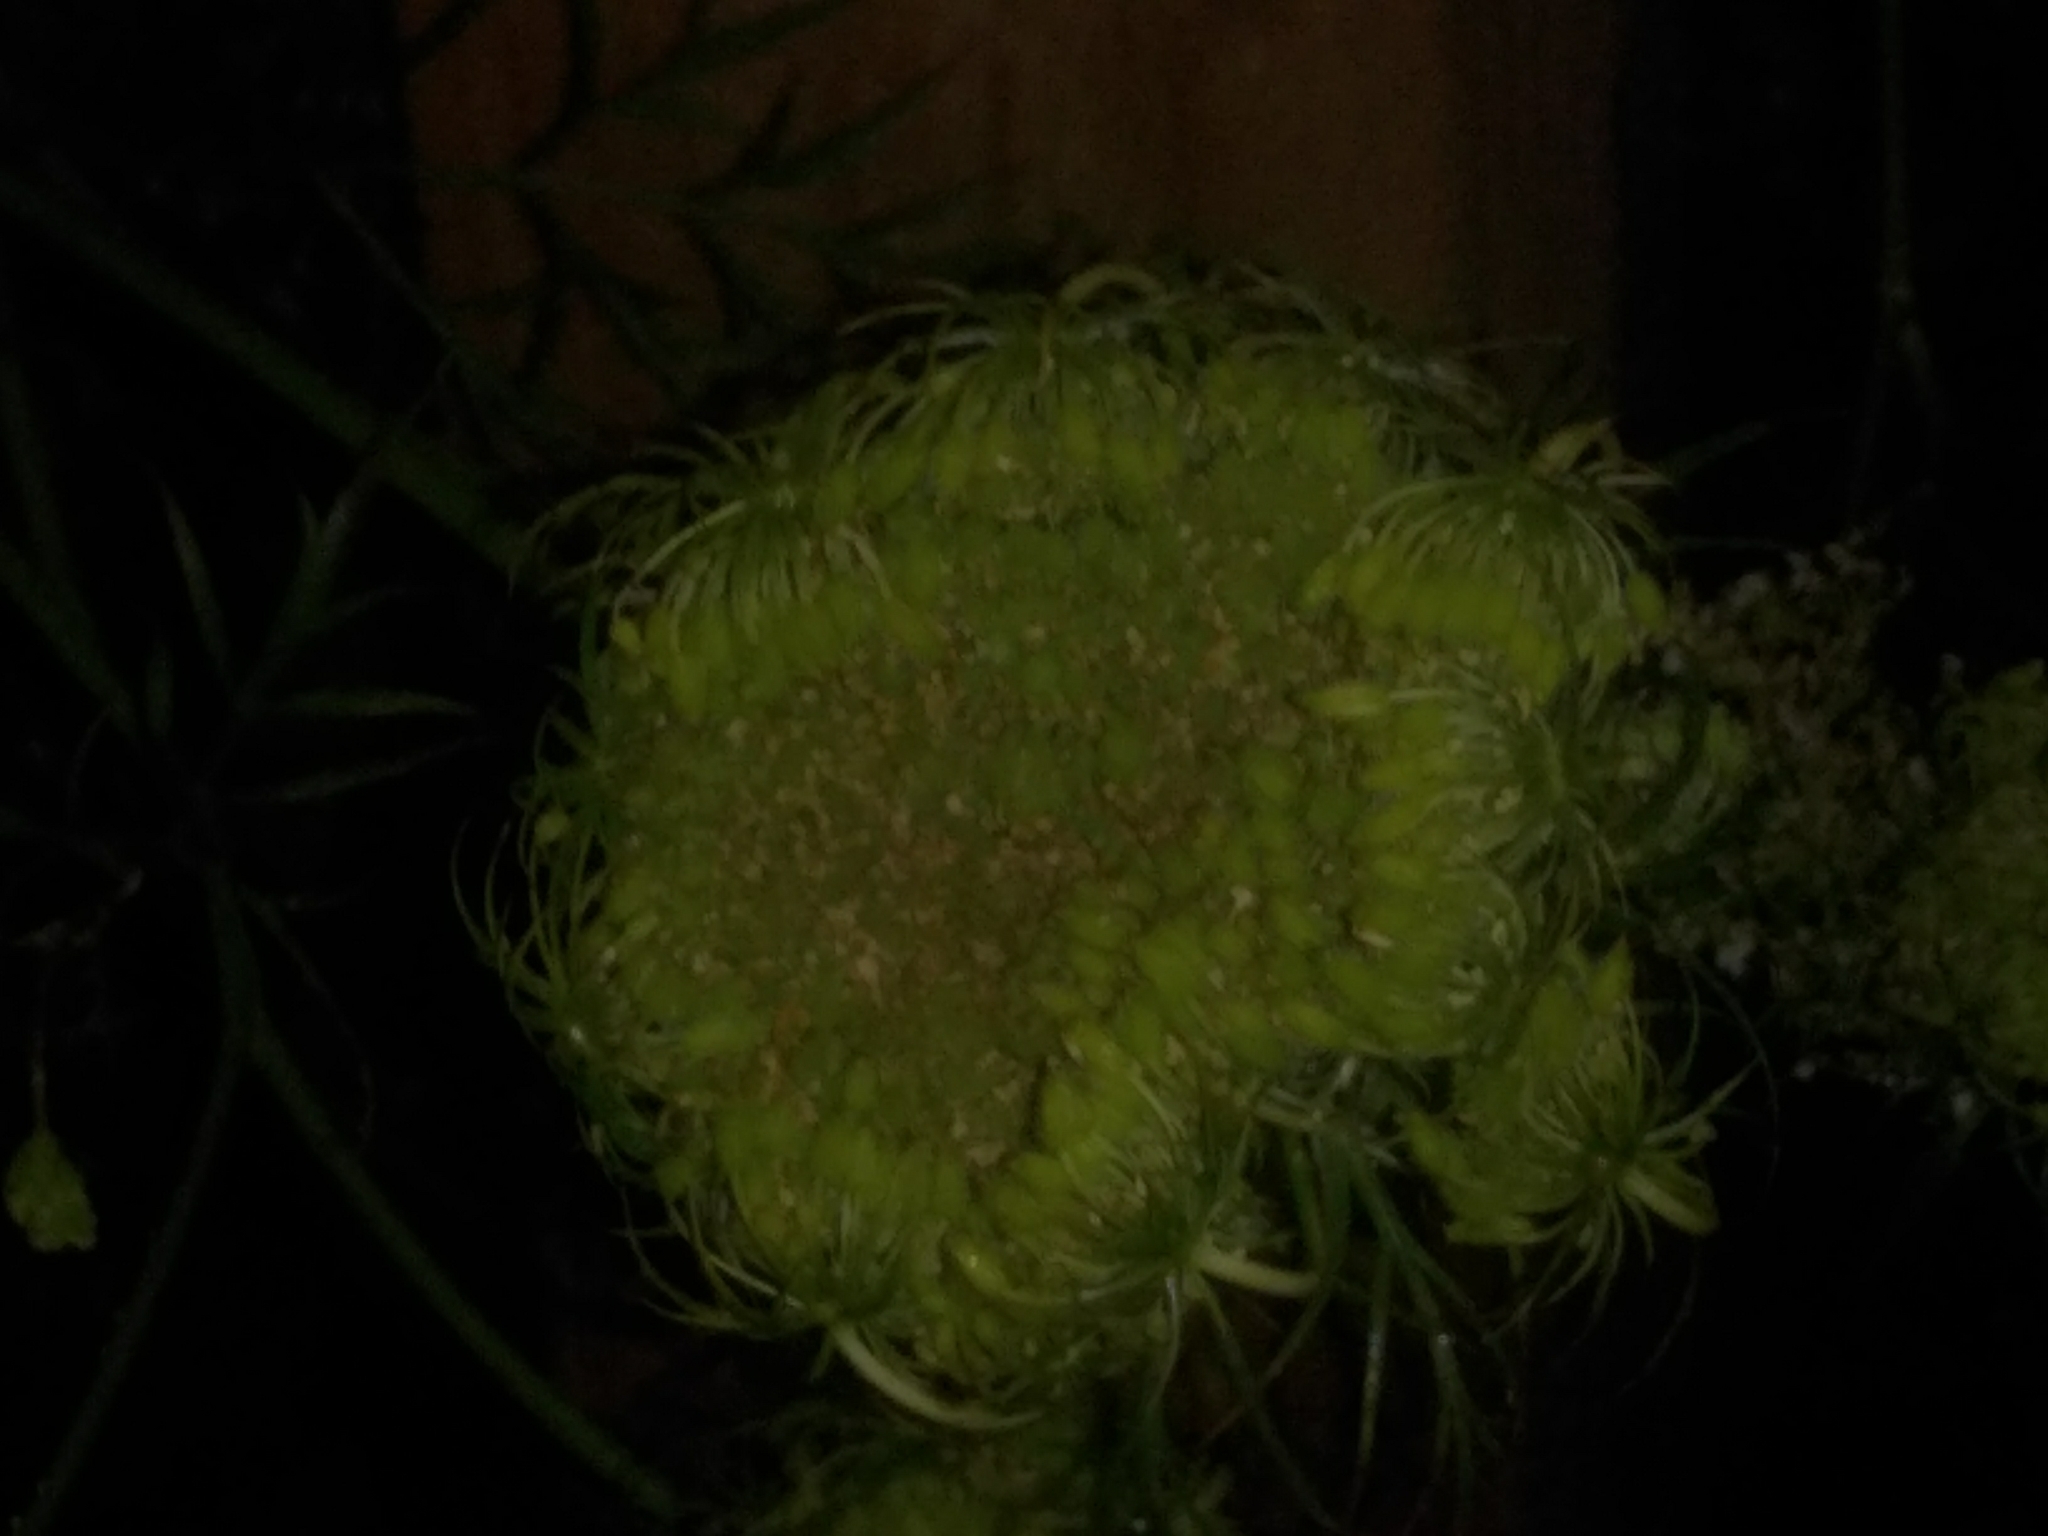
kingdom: Plantae
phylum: Tracheophyta
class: Magnoliopsida
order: Apiales
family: Apiaceae
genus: Daucus
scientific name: Daucus carota
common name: Wild carrot
